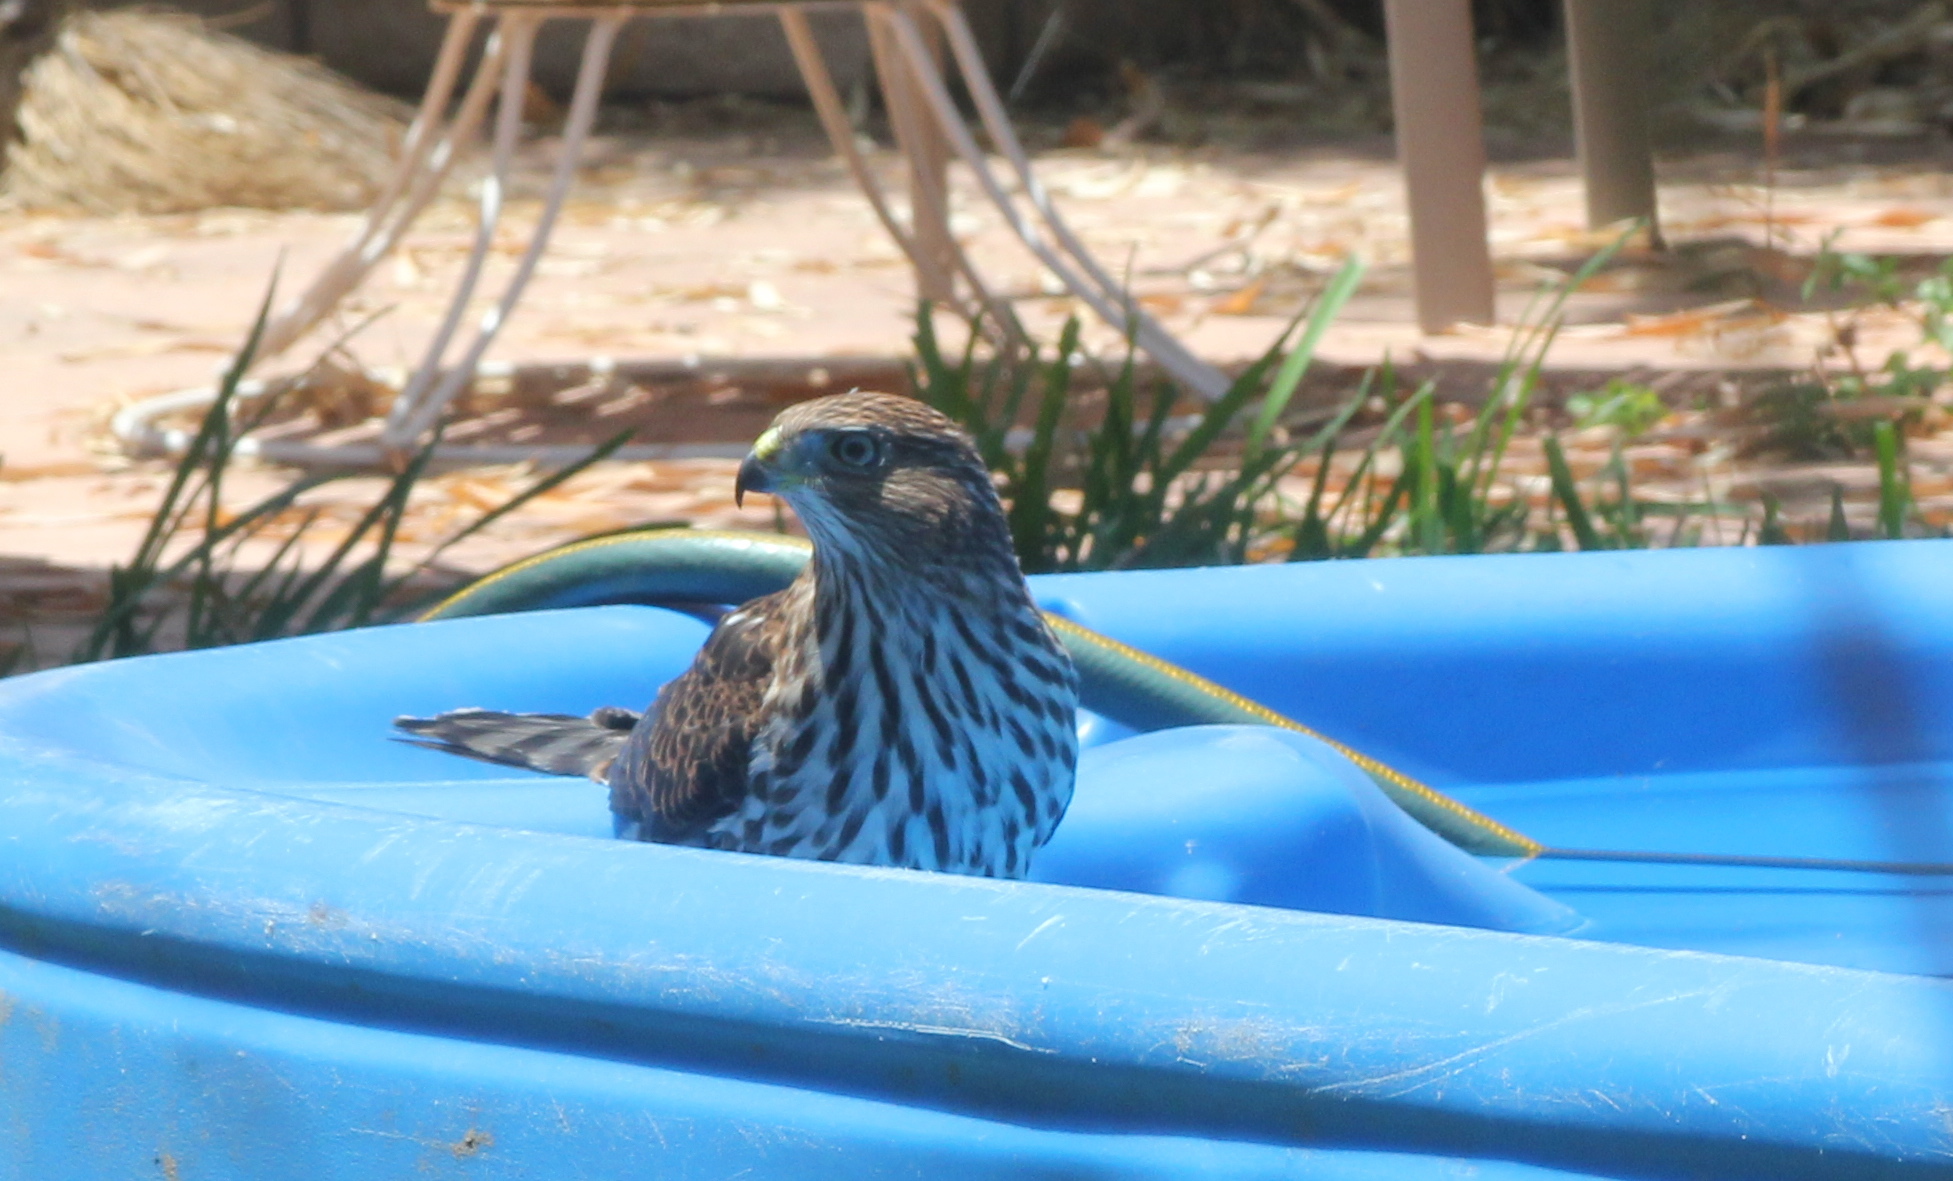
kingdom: Animalia
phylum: Chordata
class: Aves
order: Accipitriformes
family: Accipitridae
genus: Accipiter
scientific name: Accipiter cooperii
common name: Cooper's hawk
